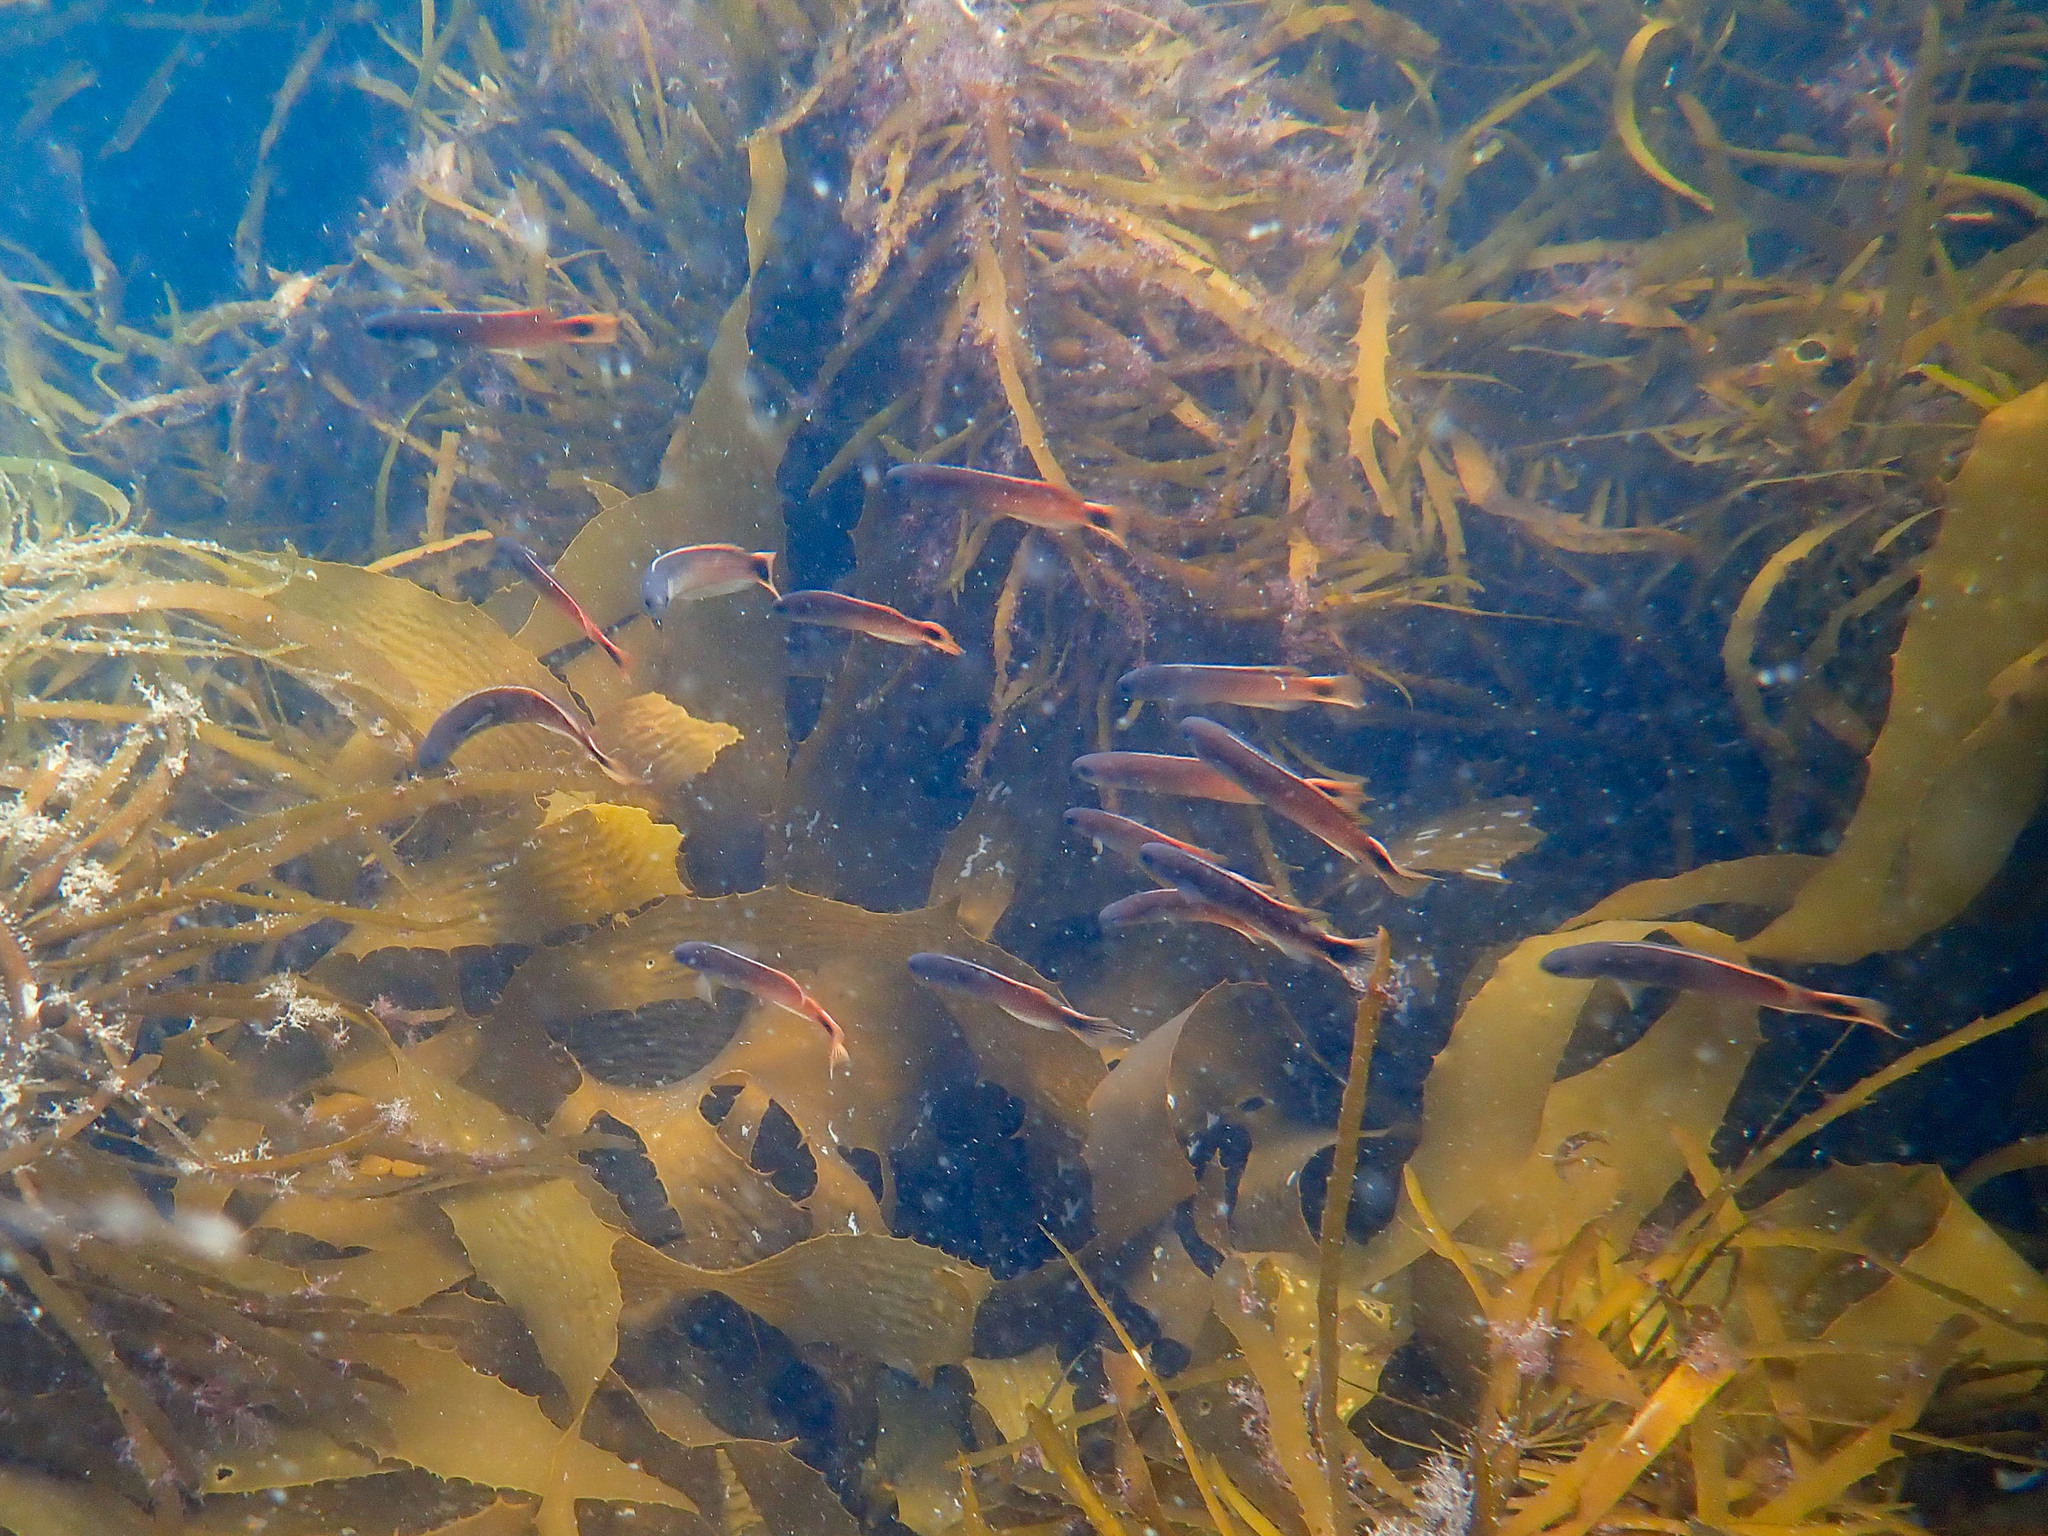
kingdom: Animalia
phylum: Chordata
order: Perciformes
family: Plesiopidae
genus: Trachinops
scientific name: Trachinops caudimaculatus
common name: Blotched-tailed trachinops
